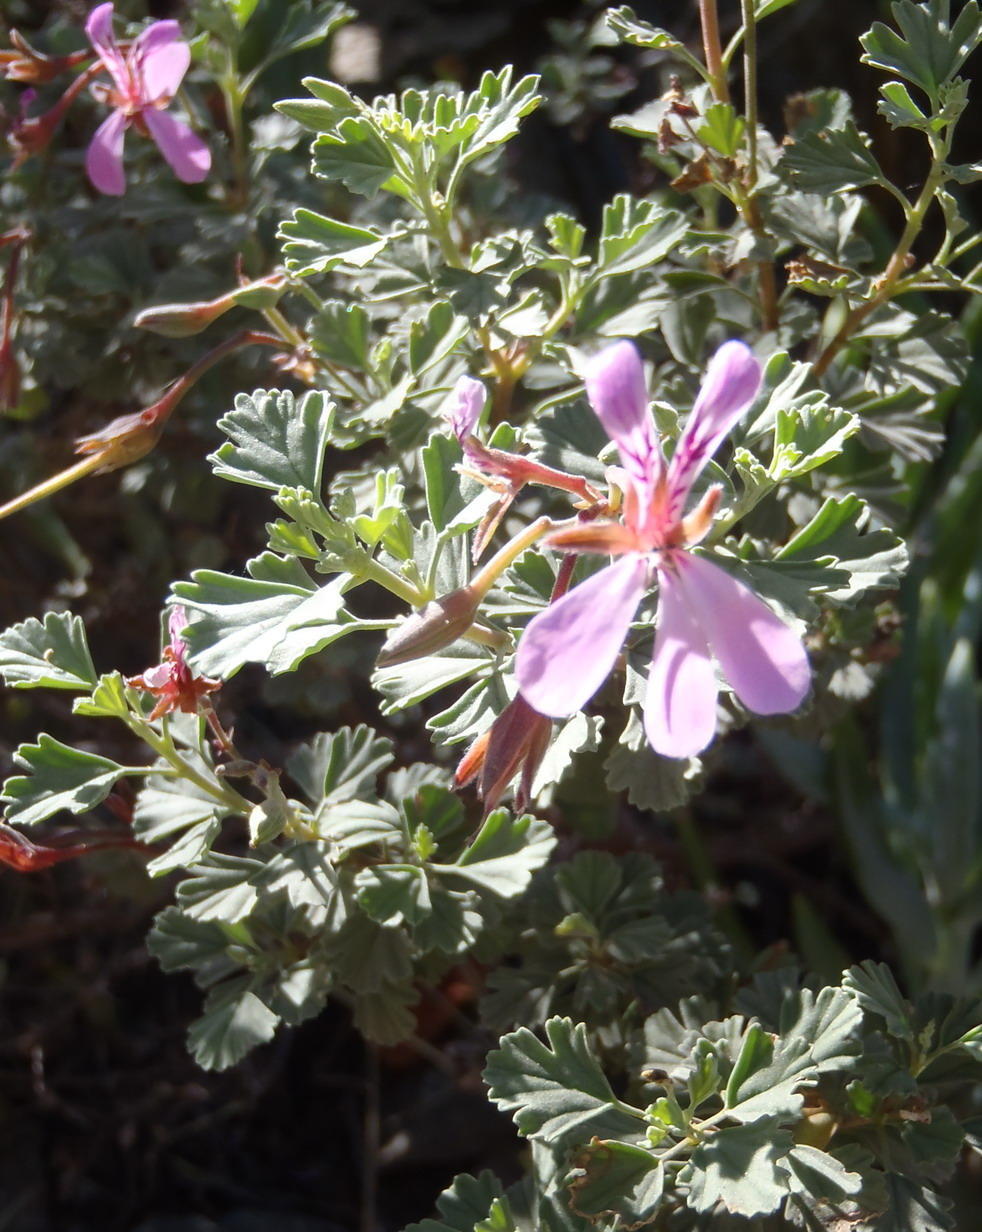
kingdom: Plantae
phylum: Tracheophyta
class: Magnoliopsida
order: Geraniales
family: Geraniaceae
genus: Pelargonium
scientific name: Pelargonium exstipulatum
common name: Soft-leaf trifid pelargonium
